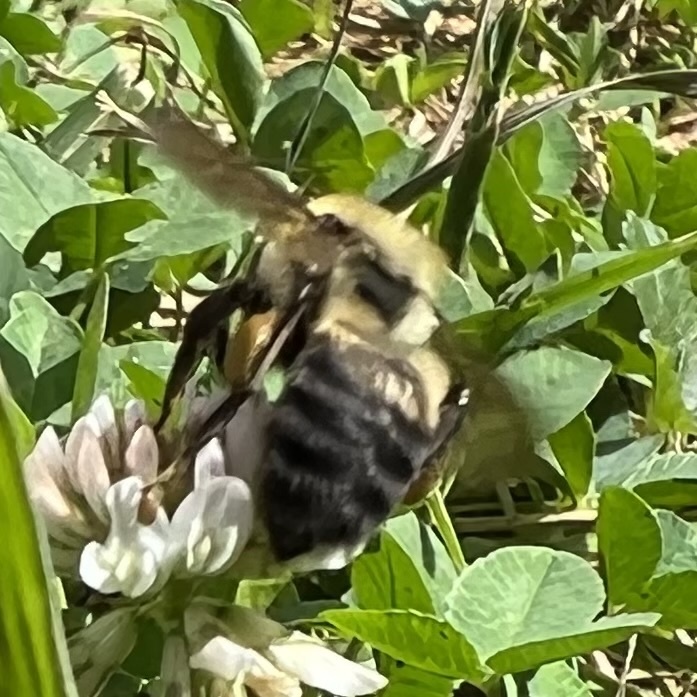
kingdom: Animalia
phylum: Arthropoda
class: Insecta
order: Hymenoptera
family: Apidae
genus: Bombus
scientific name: Bombus griseocollis
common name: Brown-belted bumble bee
